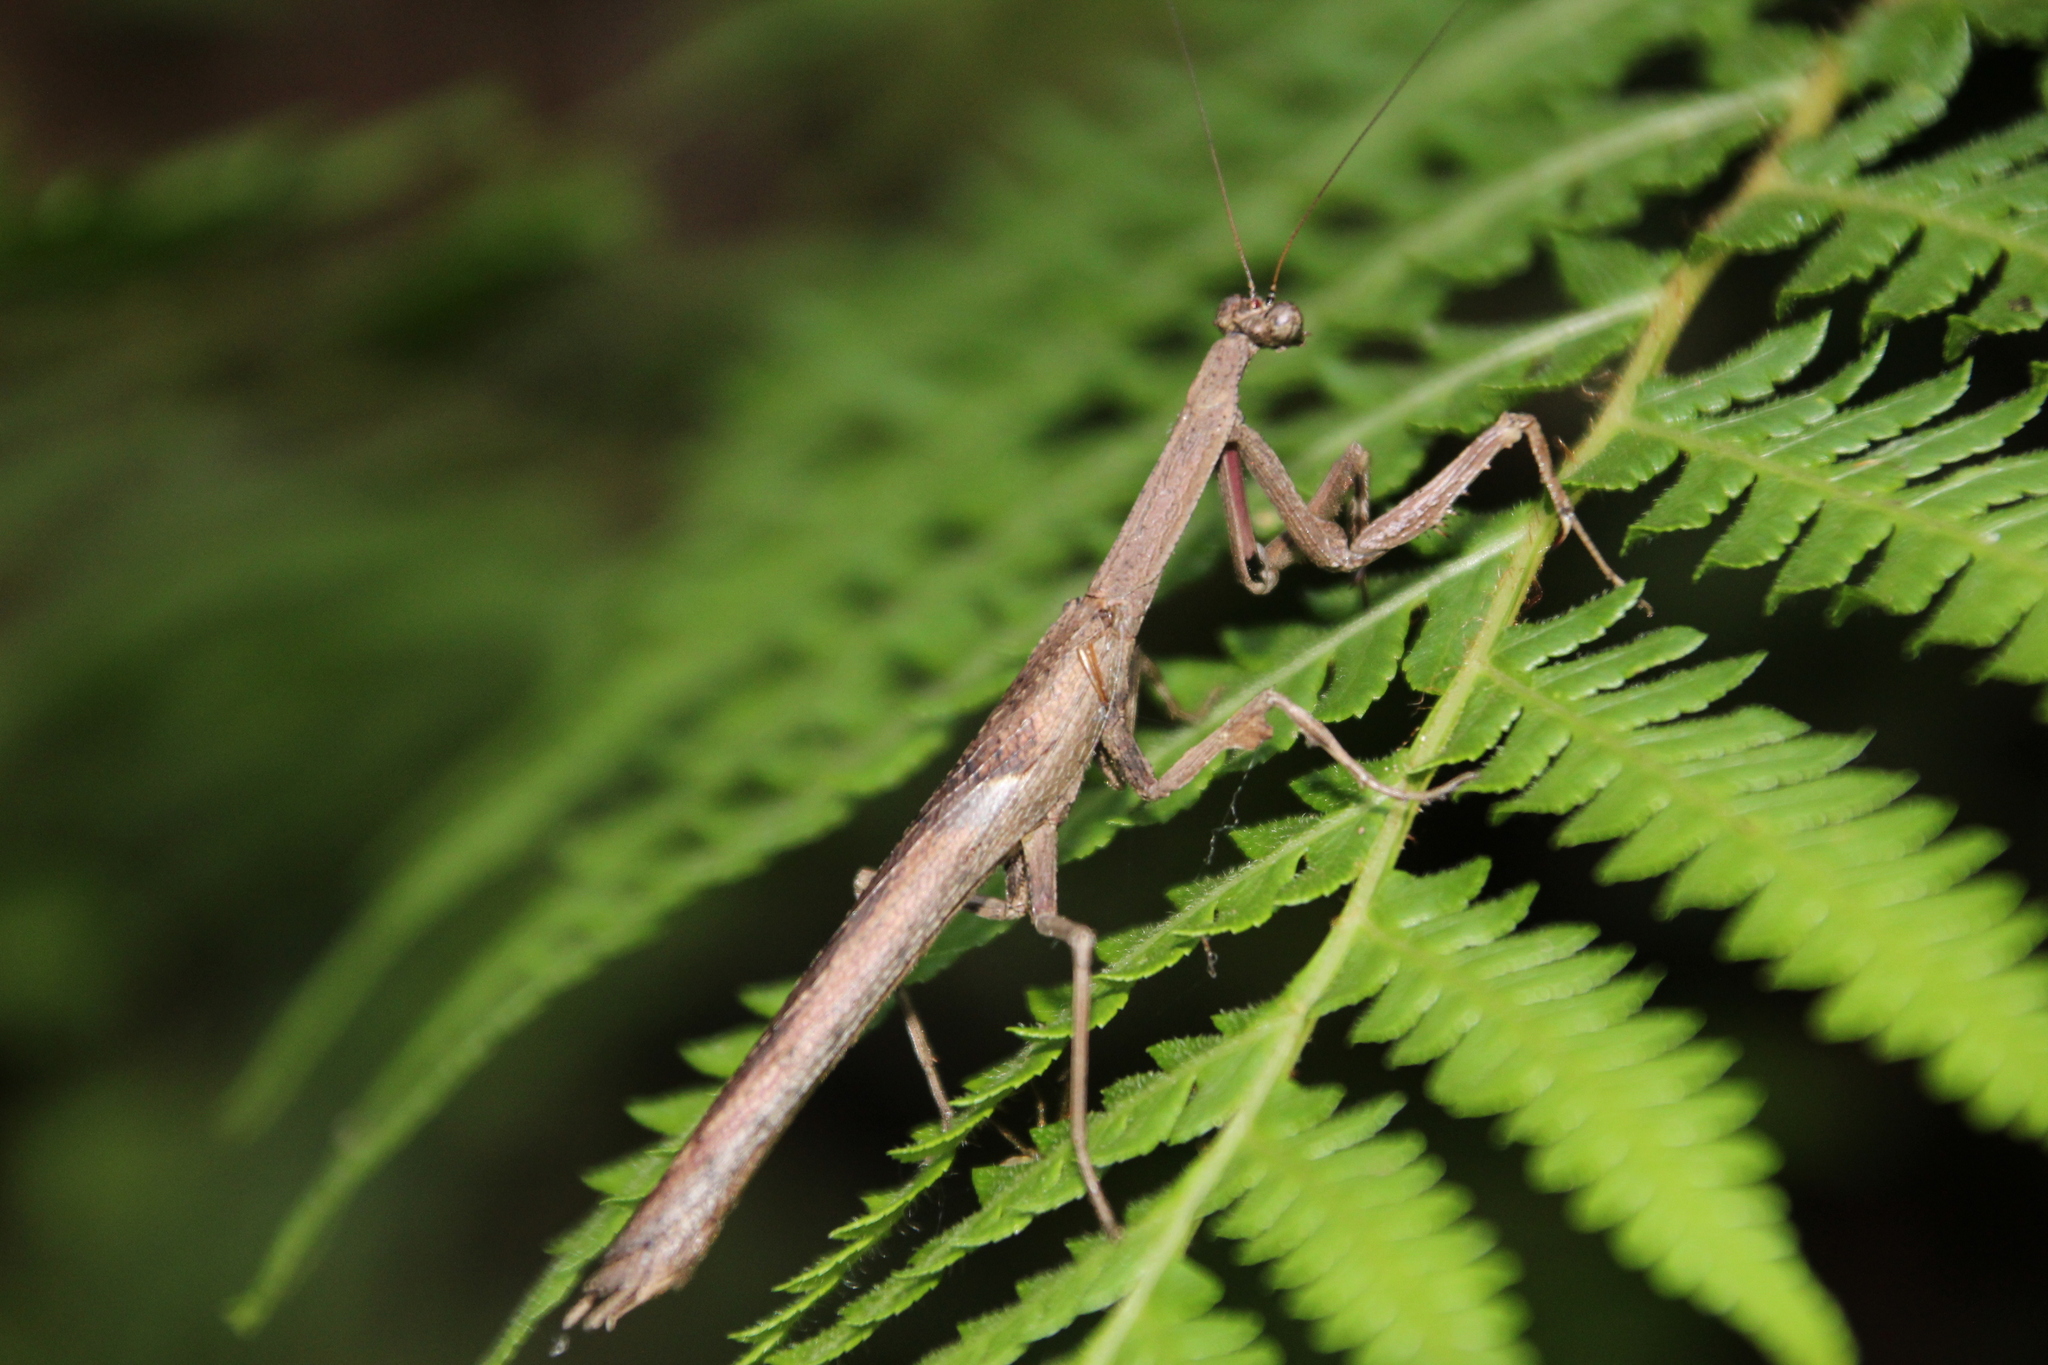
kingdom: Animalia
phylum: Arthropoda
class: Insecta
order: Mantodea
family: Deroplatyidae
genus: Popa
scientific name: Popa spurca
